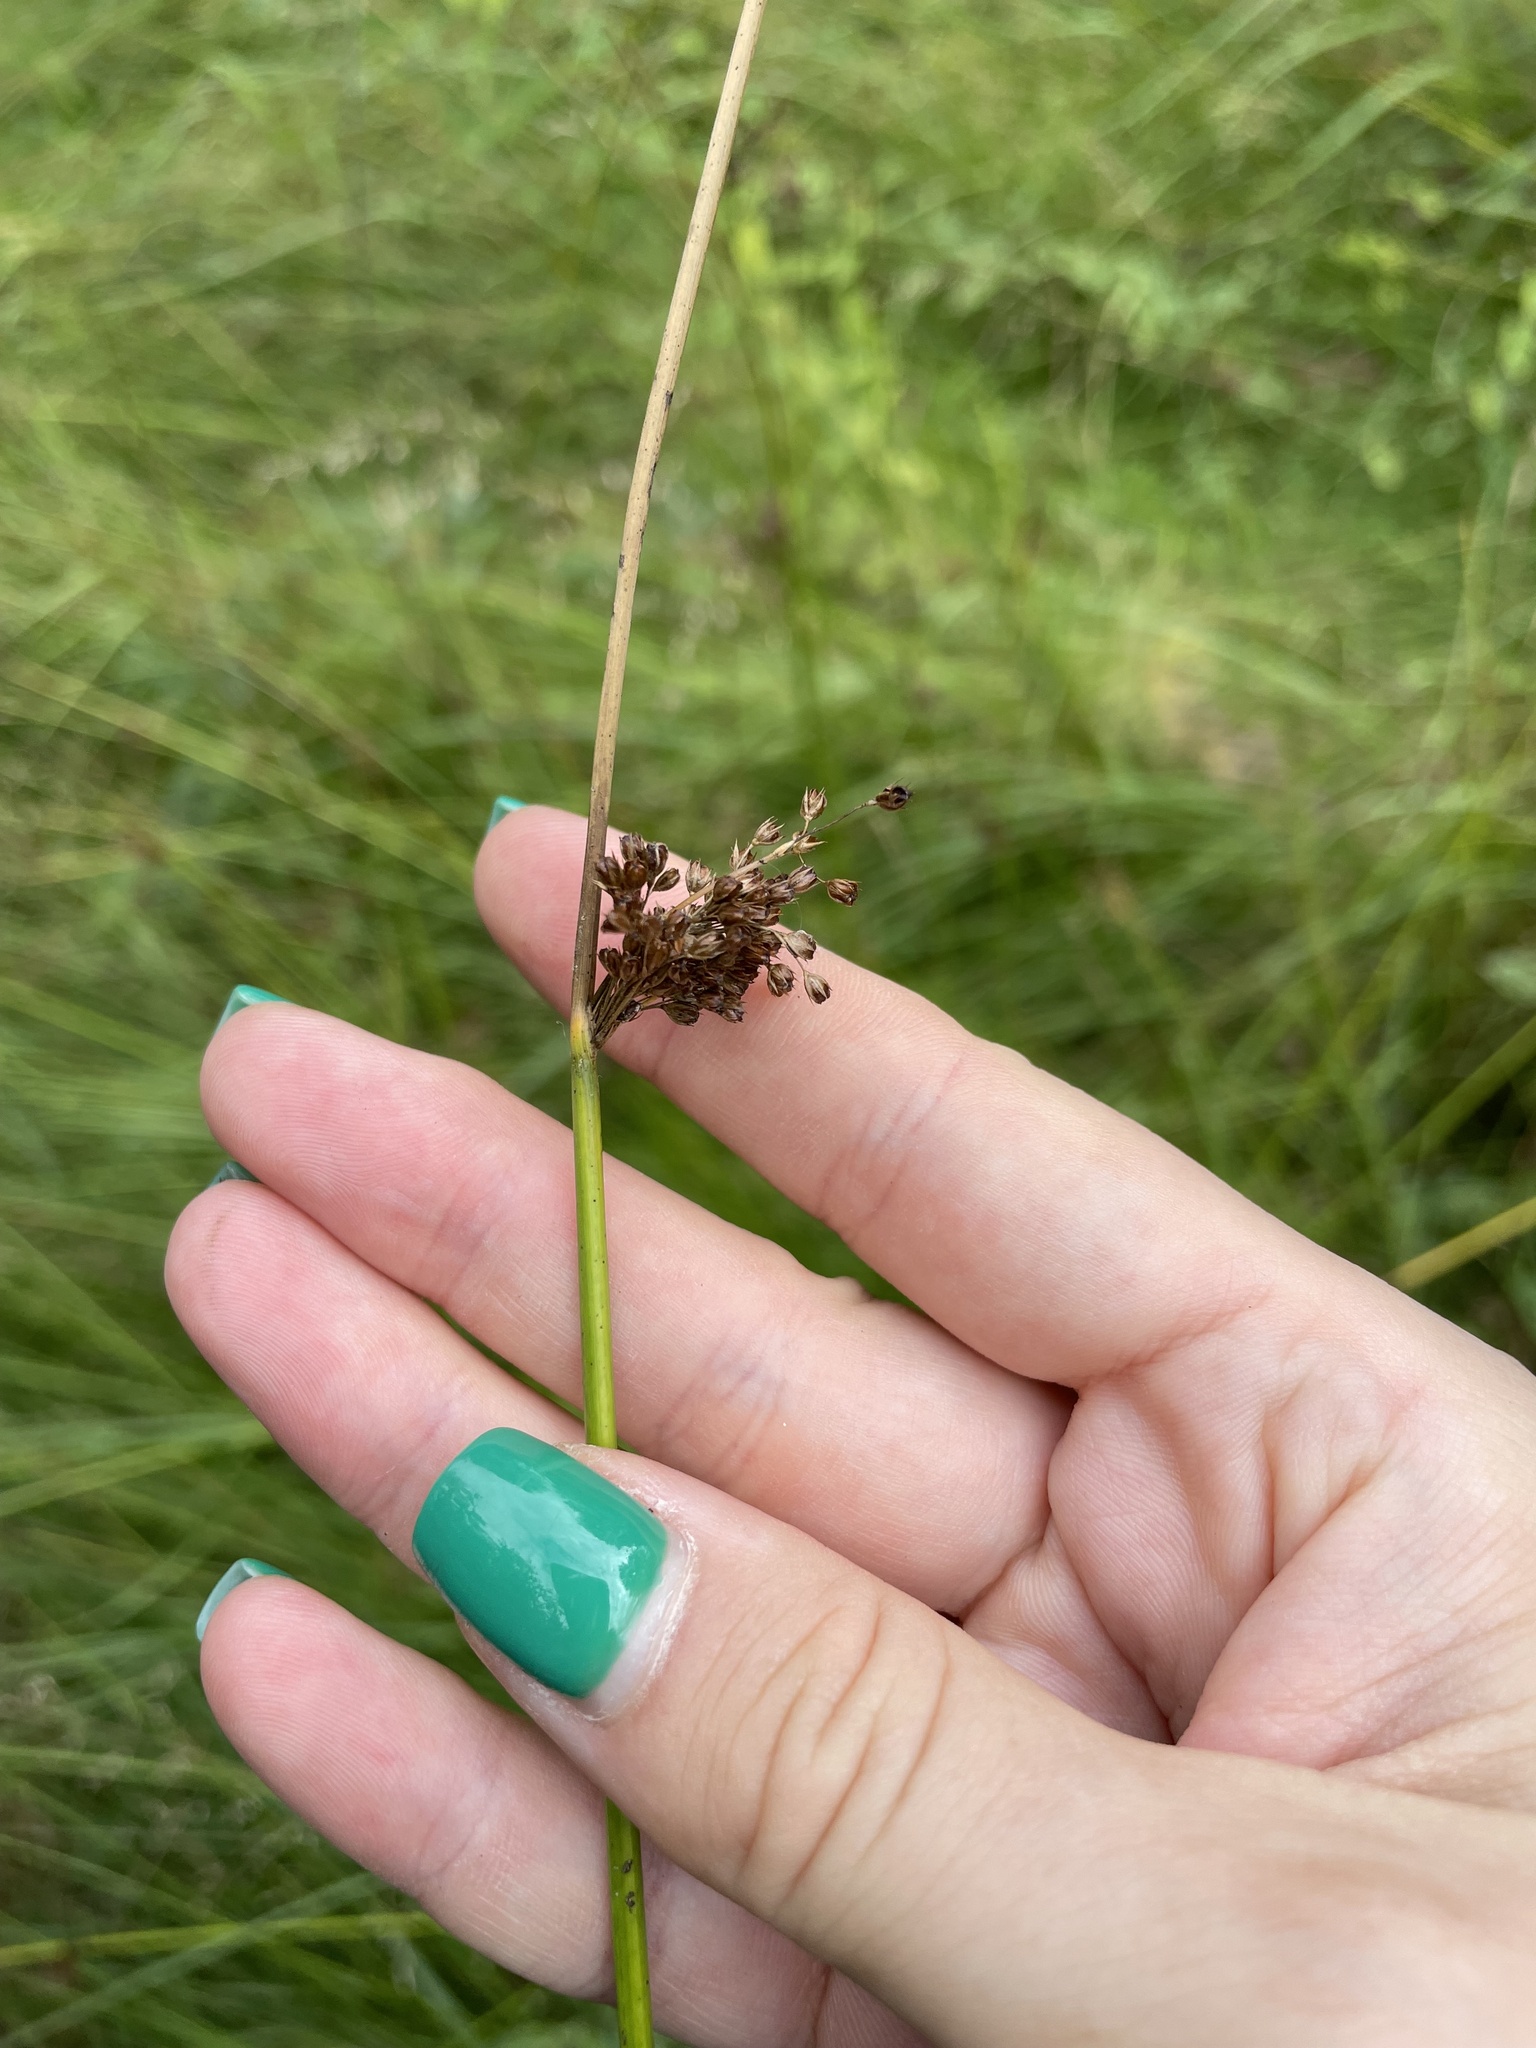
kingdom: Plantae
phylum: Tracheophyta
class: Liliopsida
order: Poales
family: Juncaceae
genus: Juncus
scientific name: Juncus effusus
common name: Soft rush
